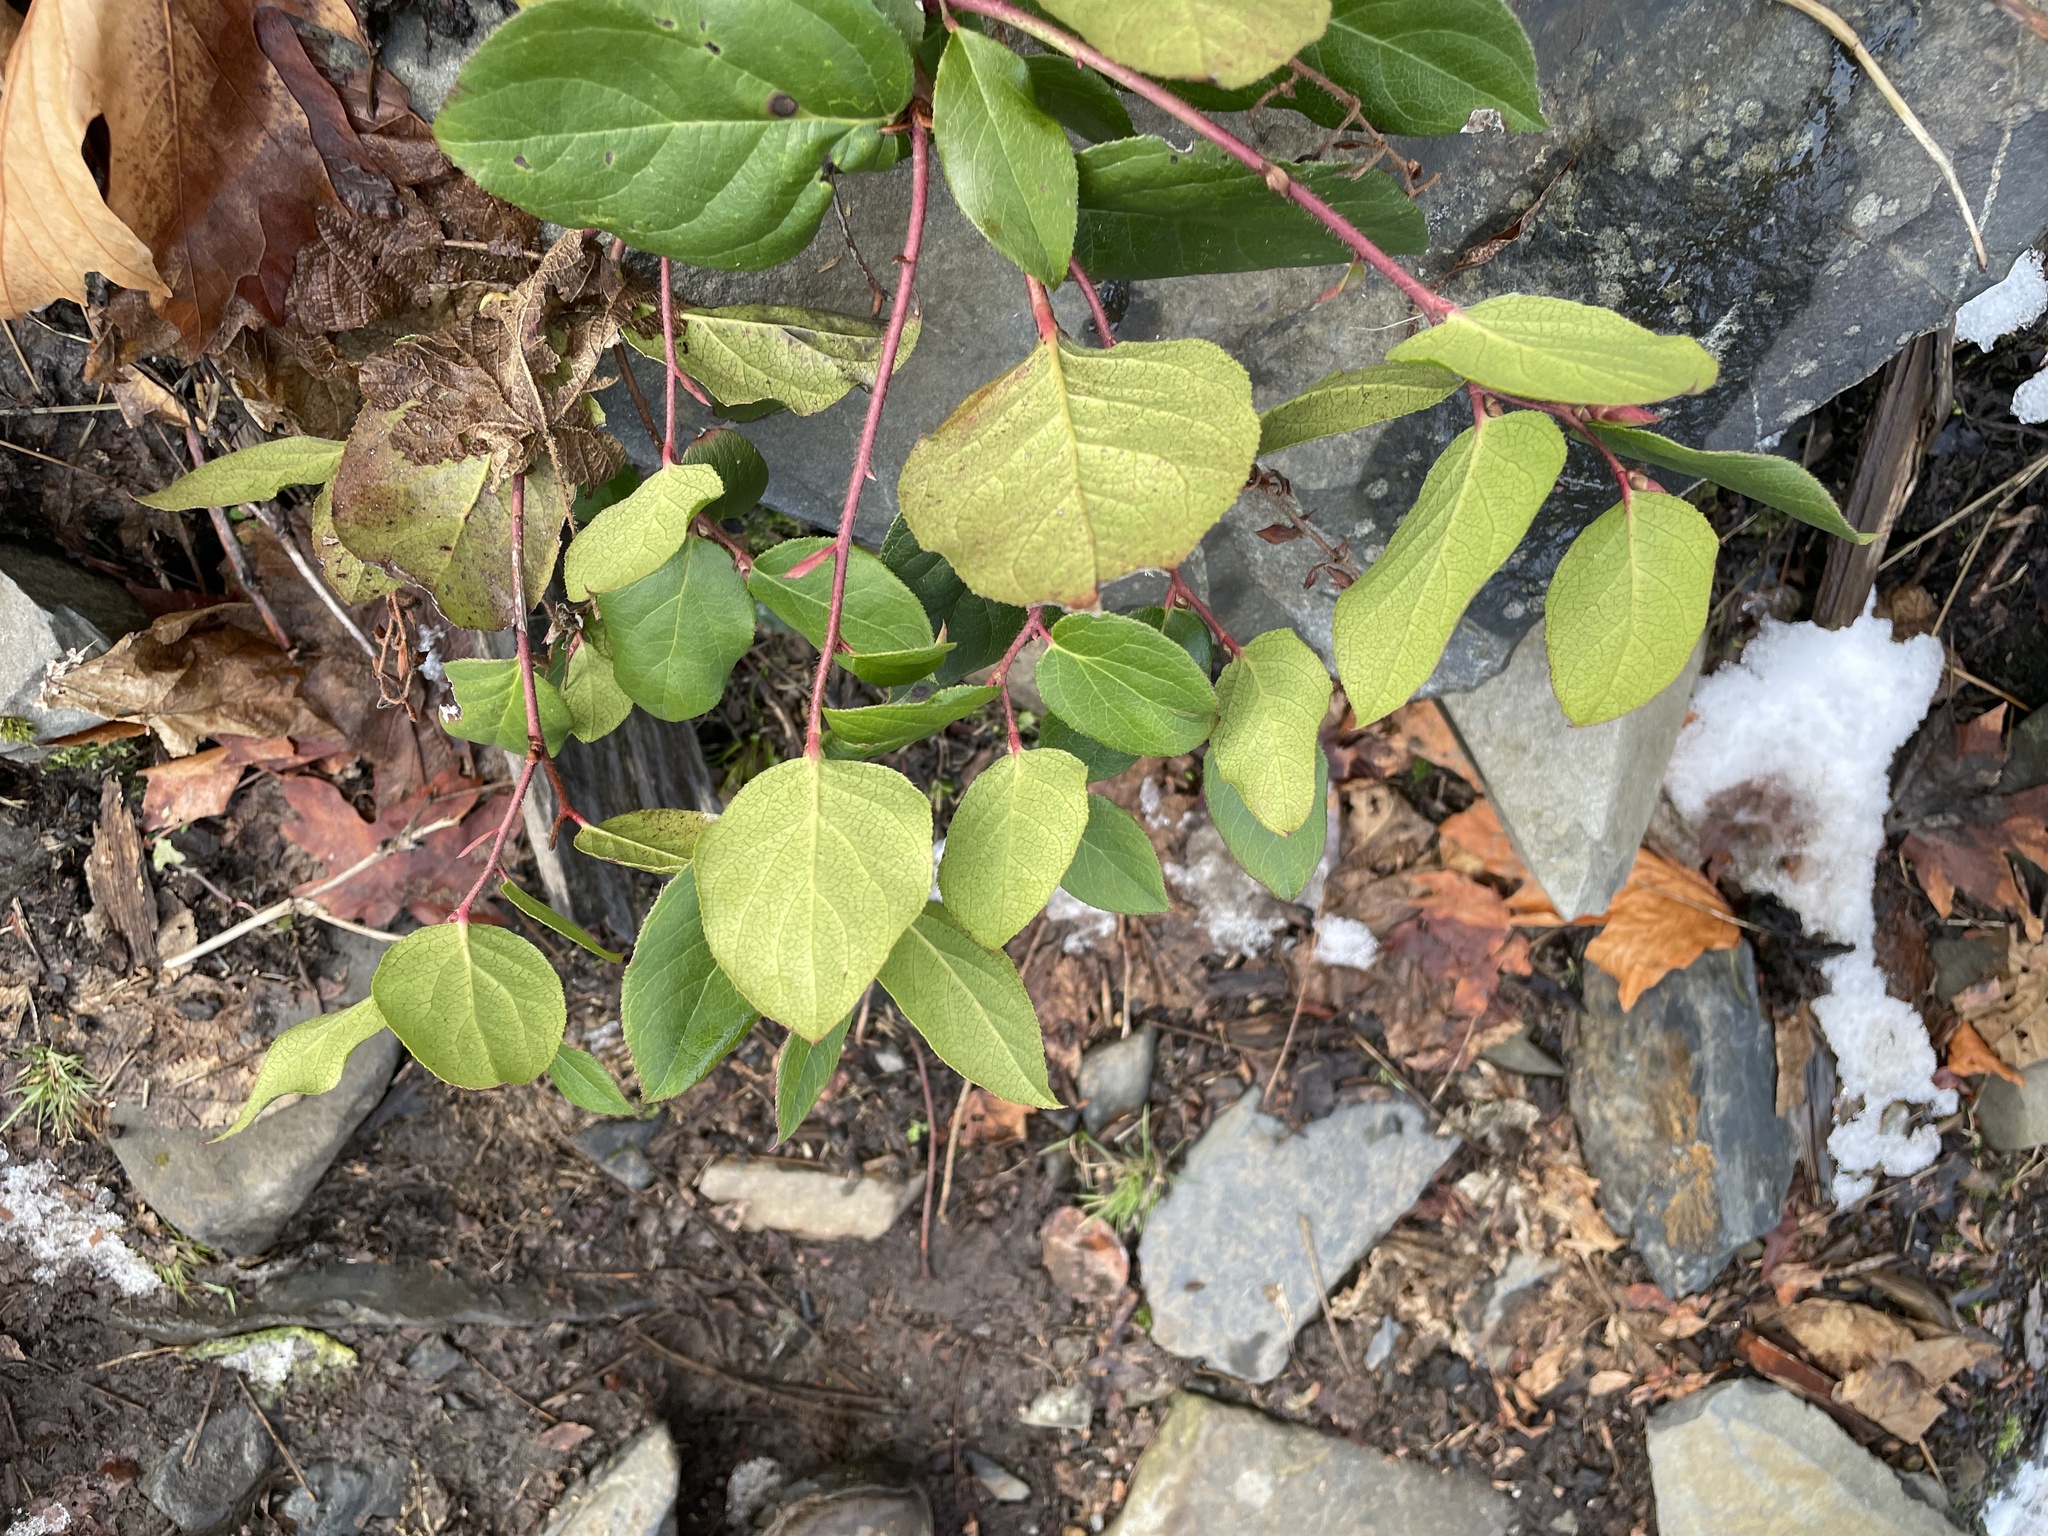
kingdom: Plantae
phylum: Tracheophyta
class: Magnoliopsida
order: Ericales
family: Ericaceae
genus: Gaultheria
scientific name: Gaultheria shallon
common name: Shallon
